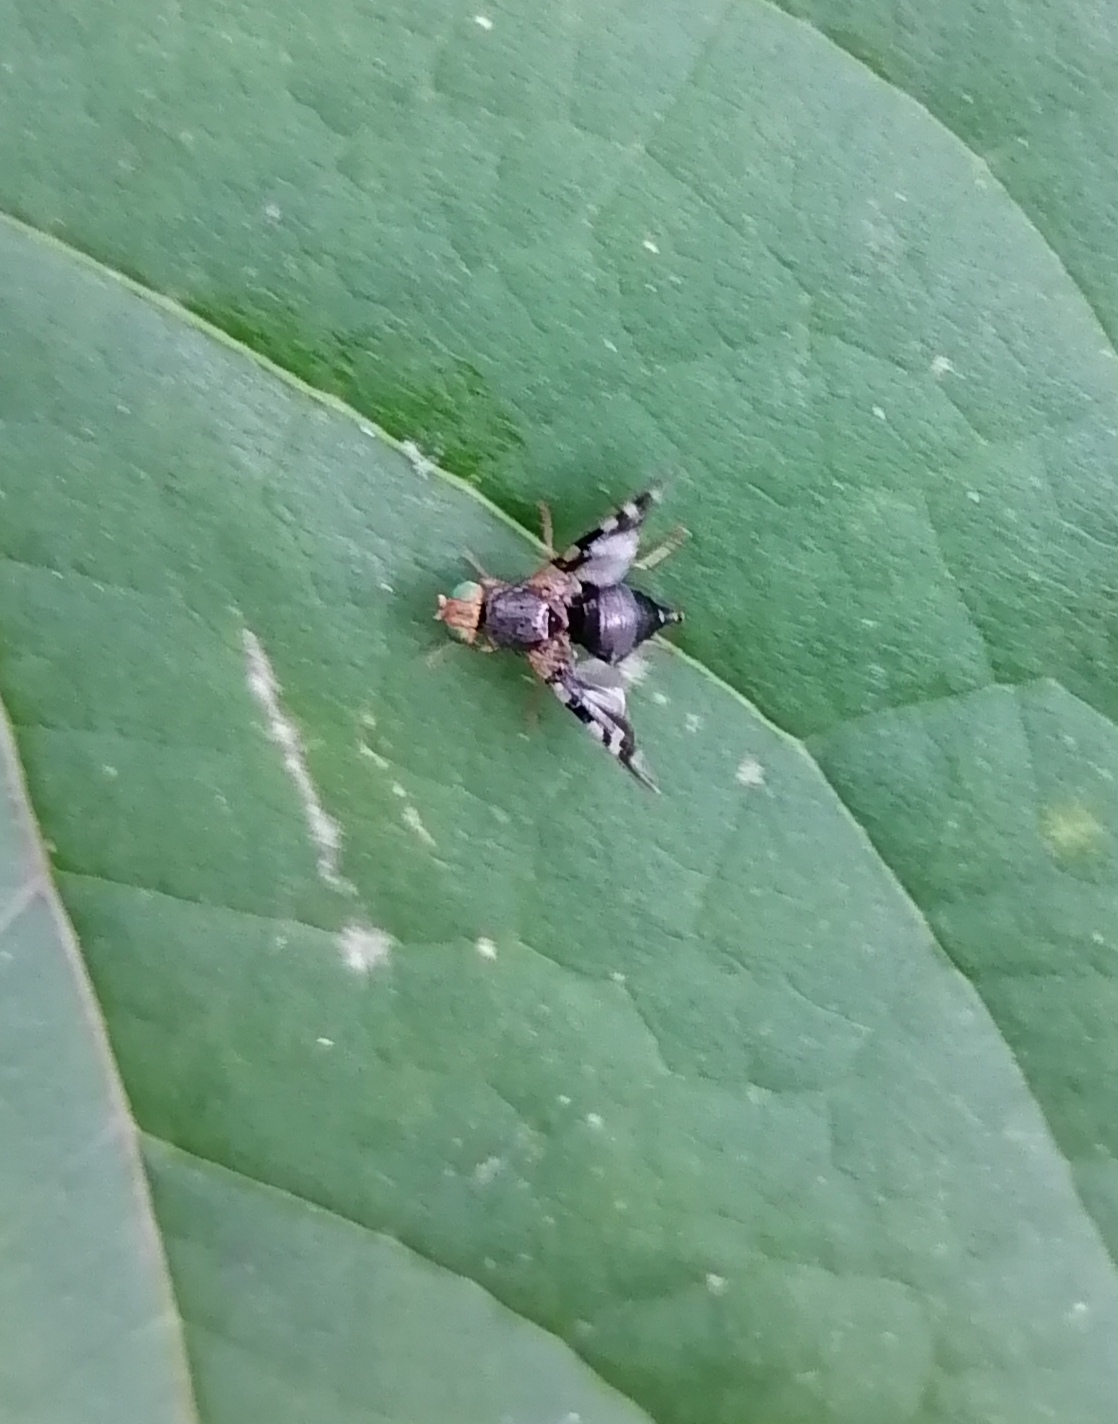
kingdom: Animalia
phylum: Arthropoda
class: Insecta
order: Diptera
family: Tephritidae
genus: Philophylla
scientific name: Philophylla caesio
